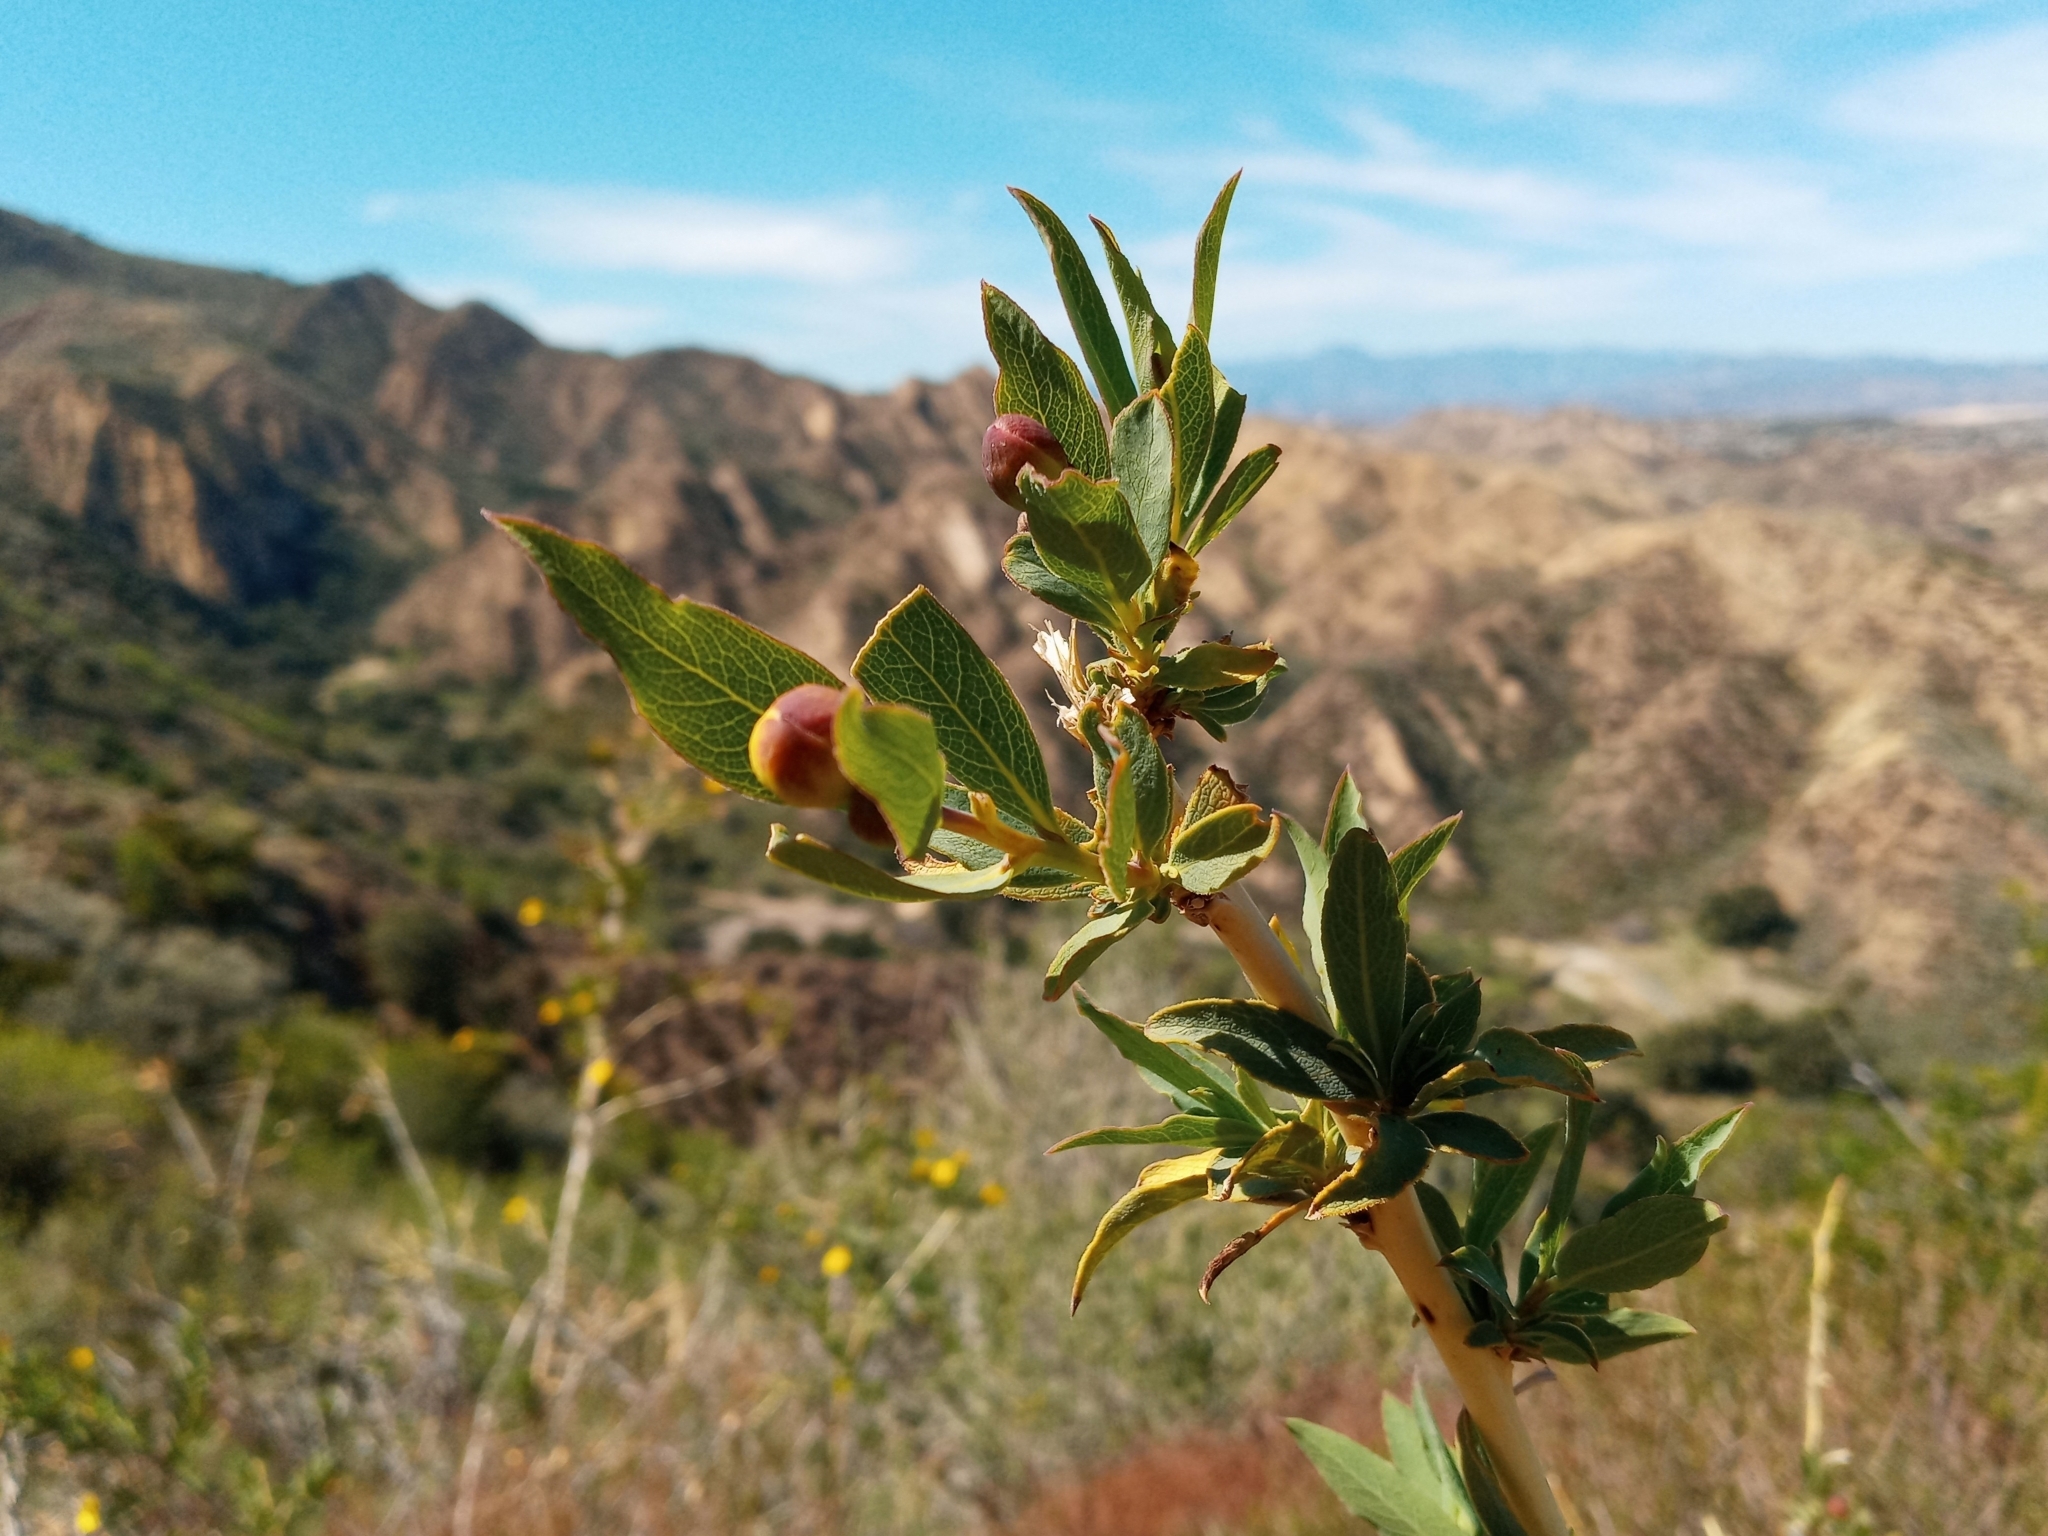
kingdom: Plantae
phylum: Tracheophyta
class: Magnoliopsida
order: Ranunculales
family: Papaveraceae
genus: Dendromecon
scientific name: Dendromecon rigida
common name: Tree poppy
